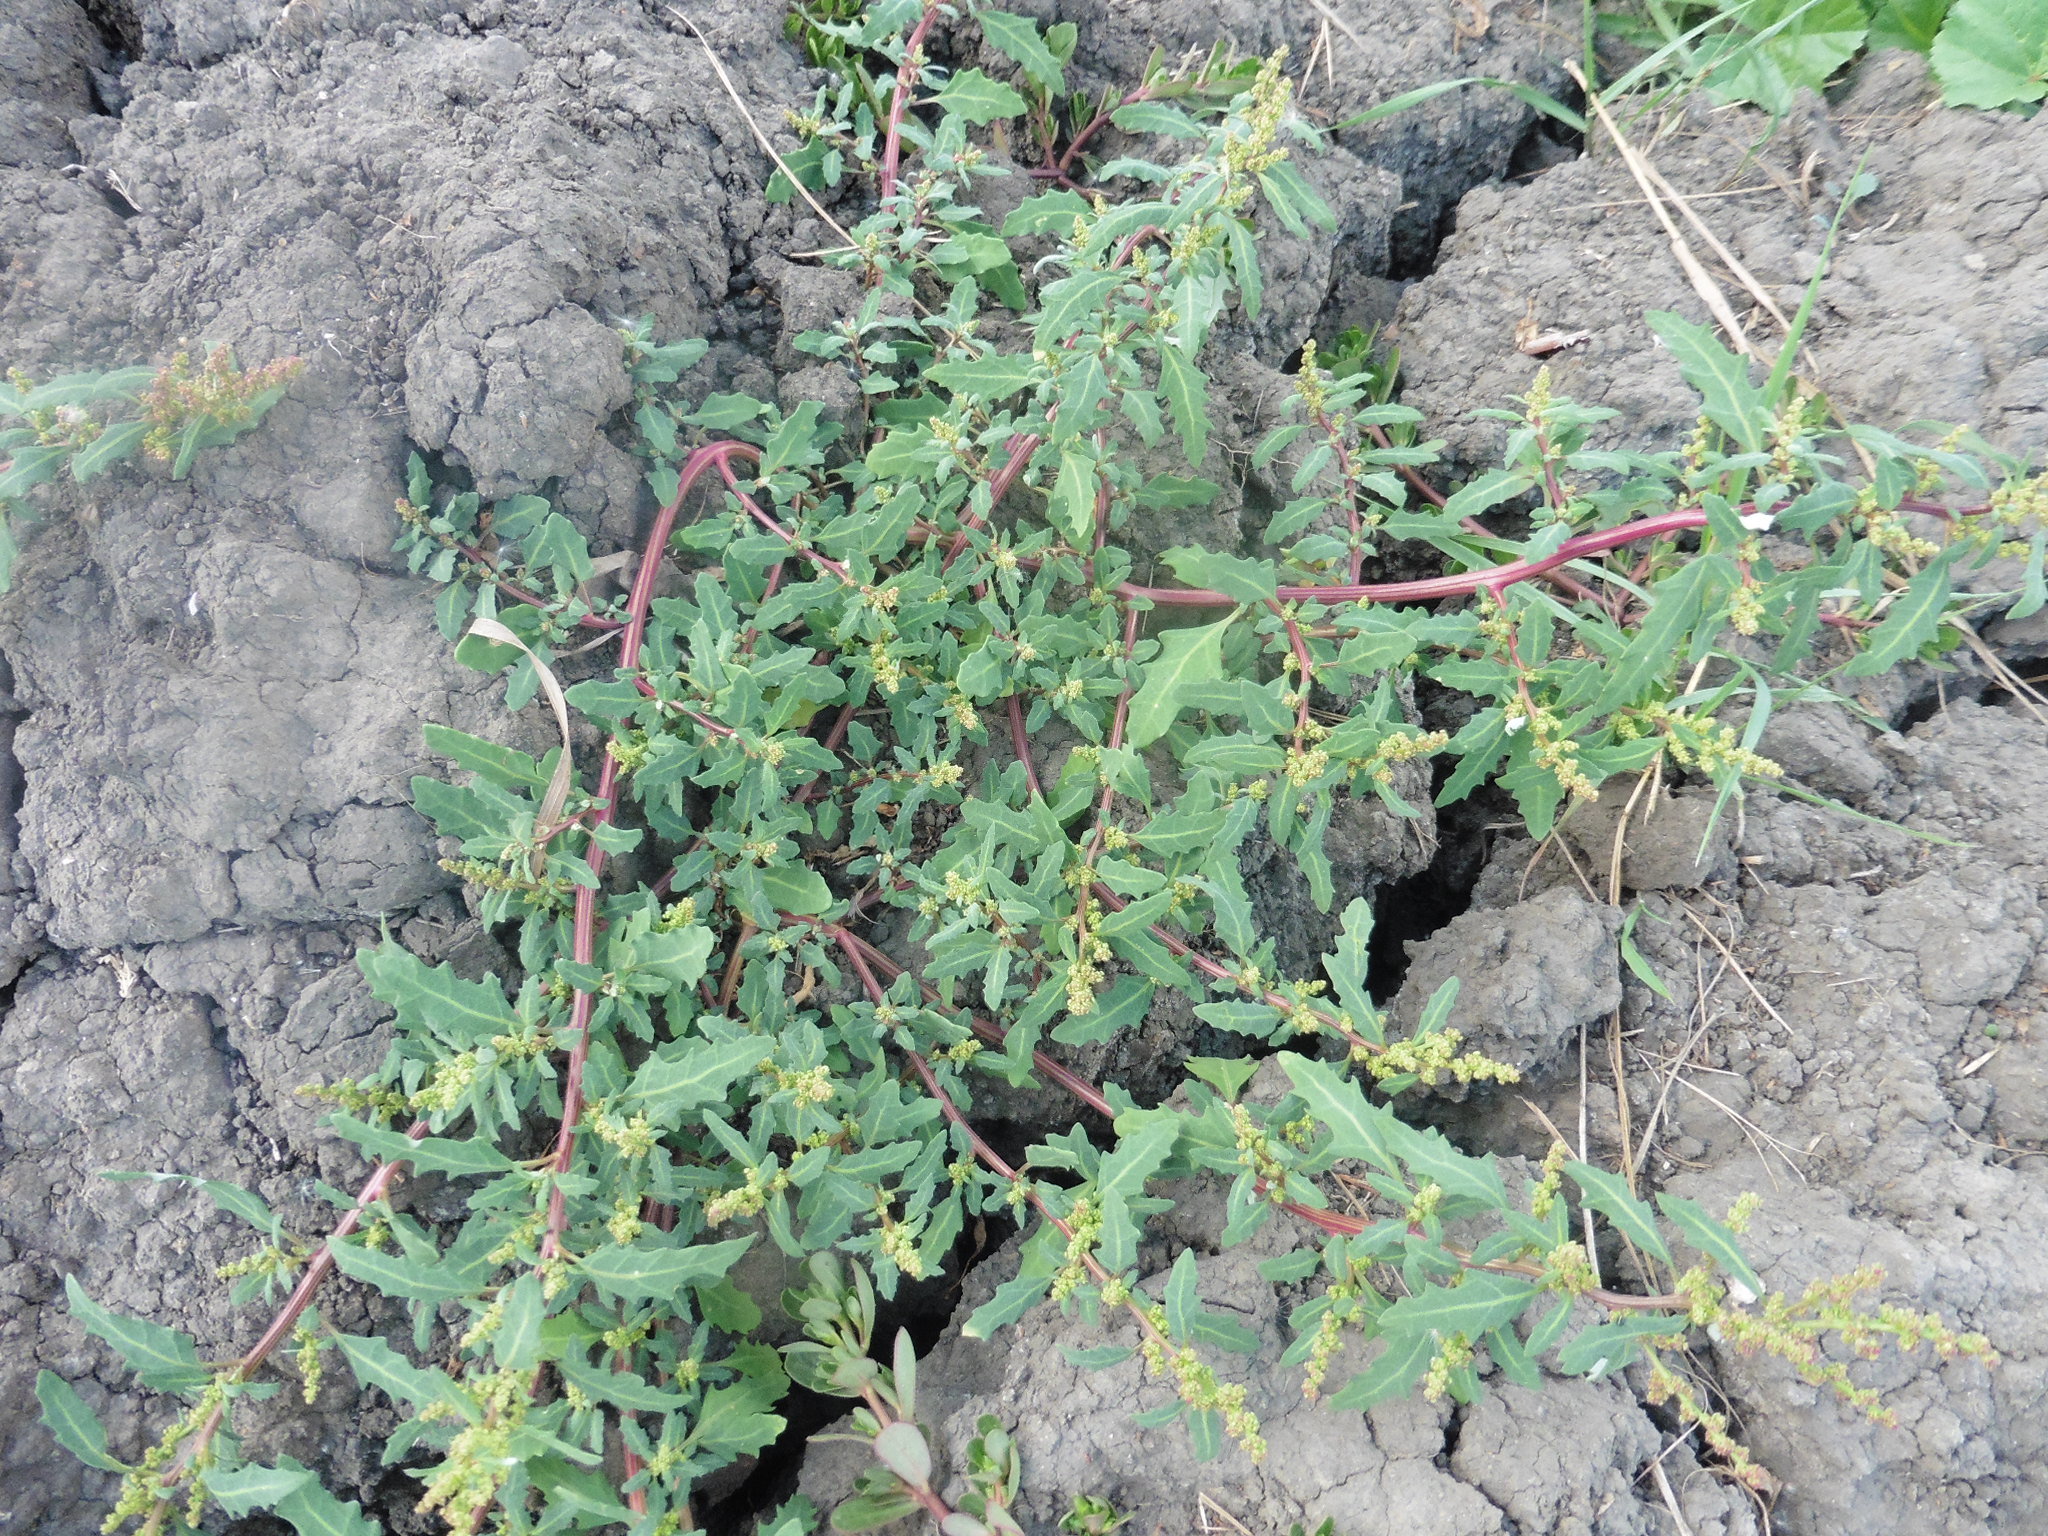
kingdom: Plantae
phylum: Tracheophyta
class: Magnoliopsida
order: Caryophyllales
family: Amaranthaceae
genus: Oxybasis
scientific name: Oxybasis glauca
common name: Glaucous goosefoot
